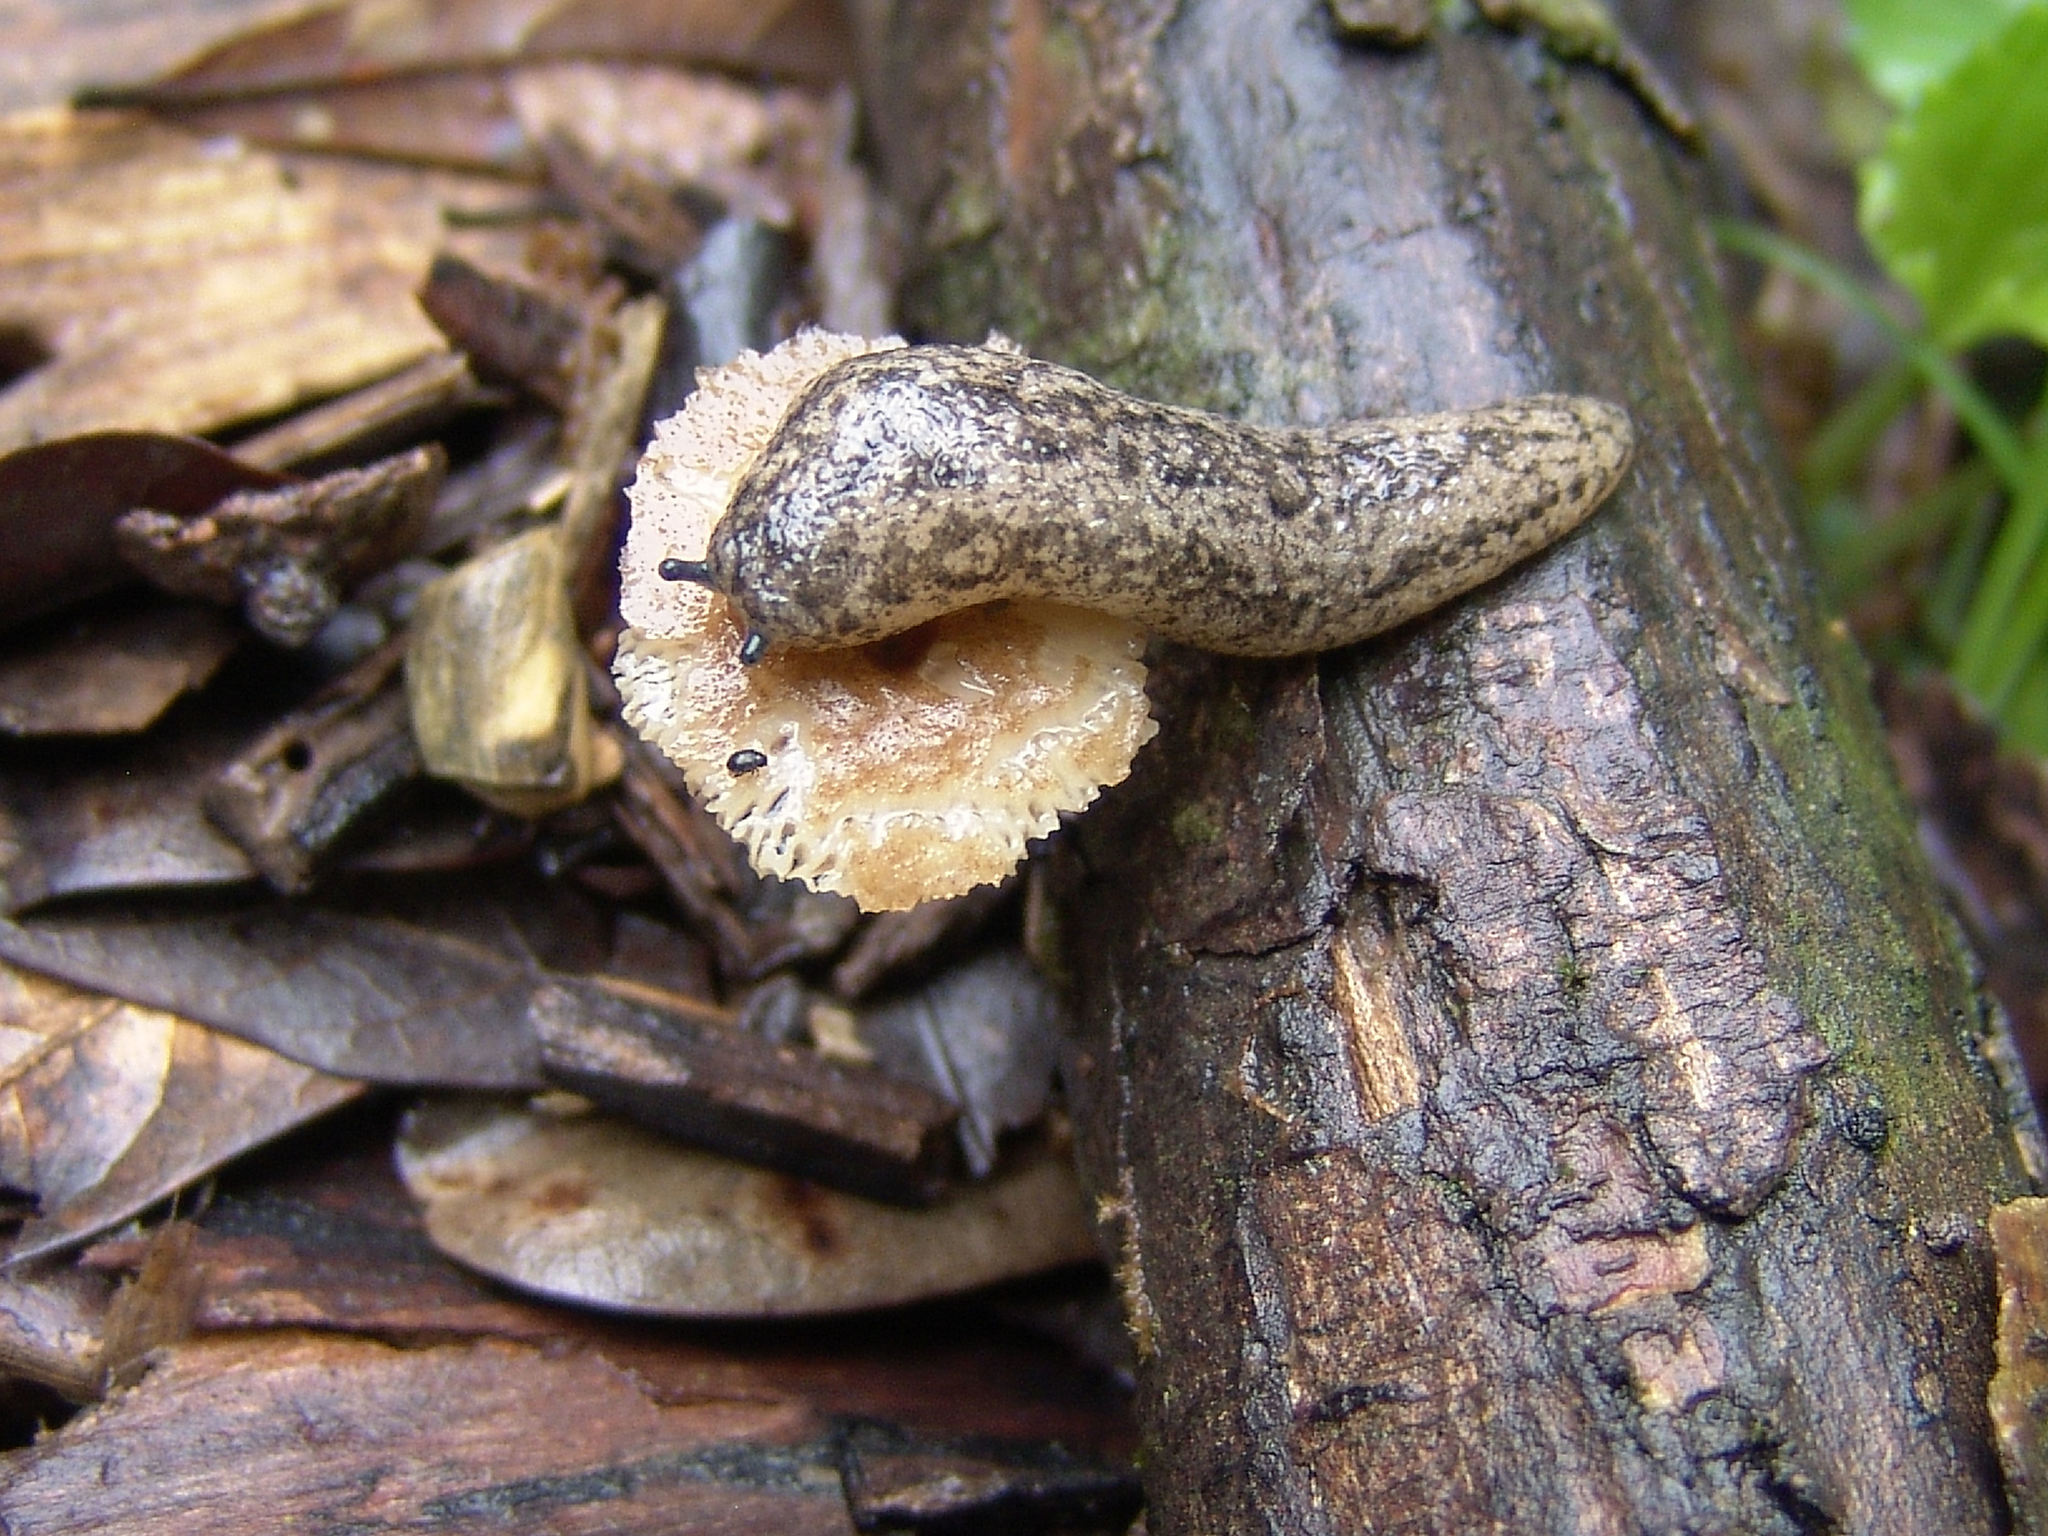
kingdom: Animalia
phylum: Mollusca
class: Gastropoda
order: Stylommatophora
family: Philomycidae
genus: Philomycus
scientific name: Philomycus carolinianus
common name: Carolina mantleslug
